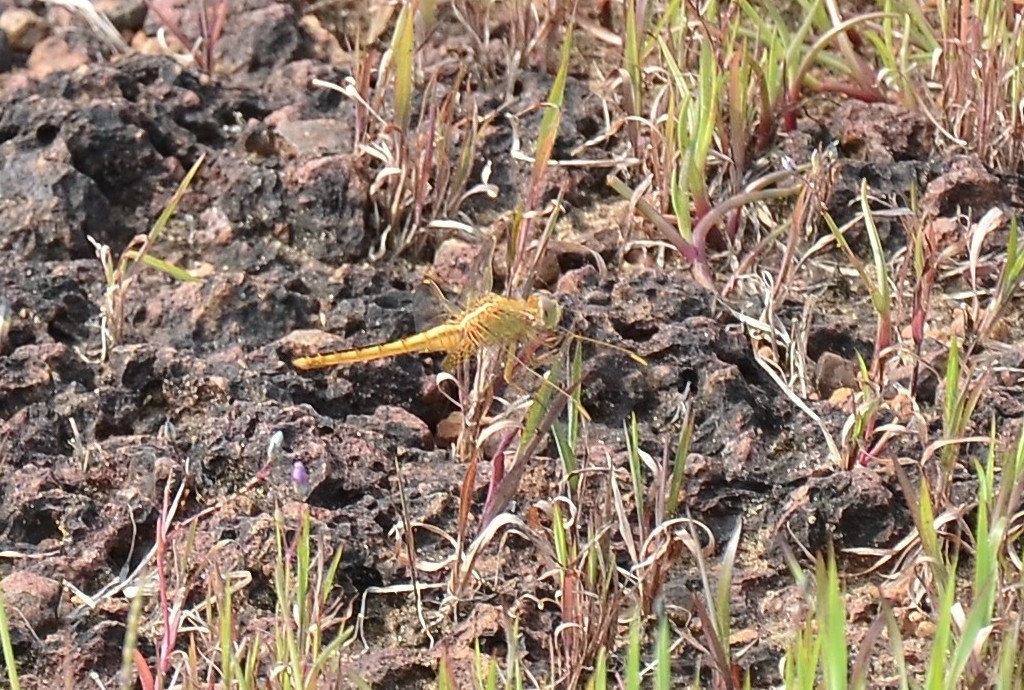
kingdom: Animalia
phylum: Arthropoda
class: Insecta
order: Odonata
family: Libellulidae
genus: Crocothemis
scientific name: Crocothemis servilia
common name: Scarlet skimmer
